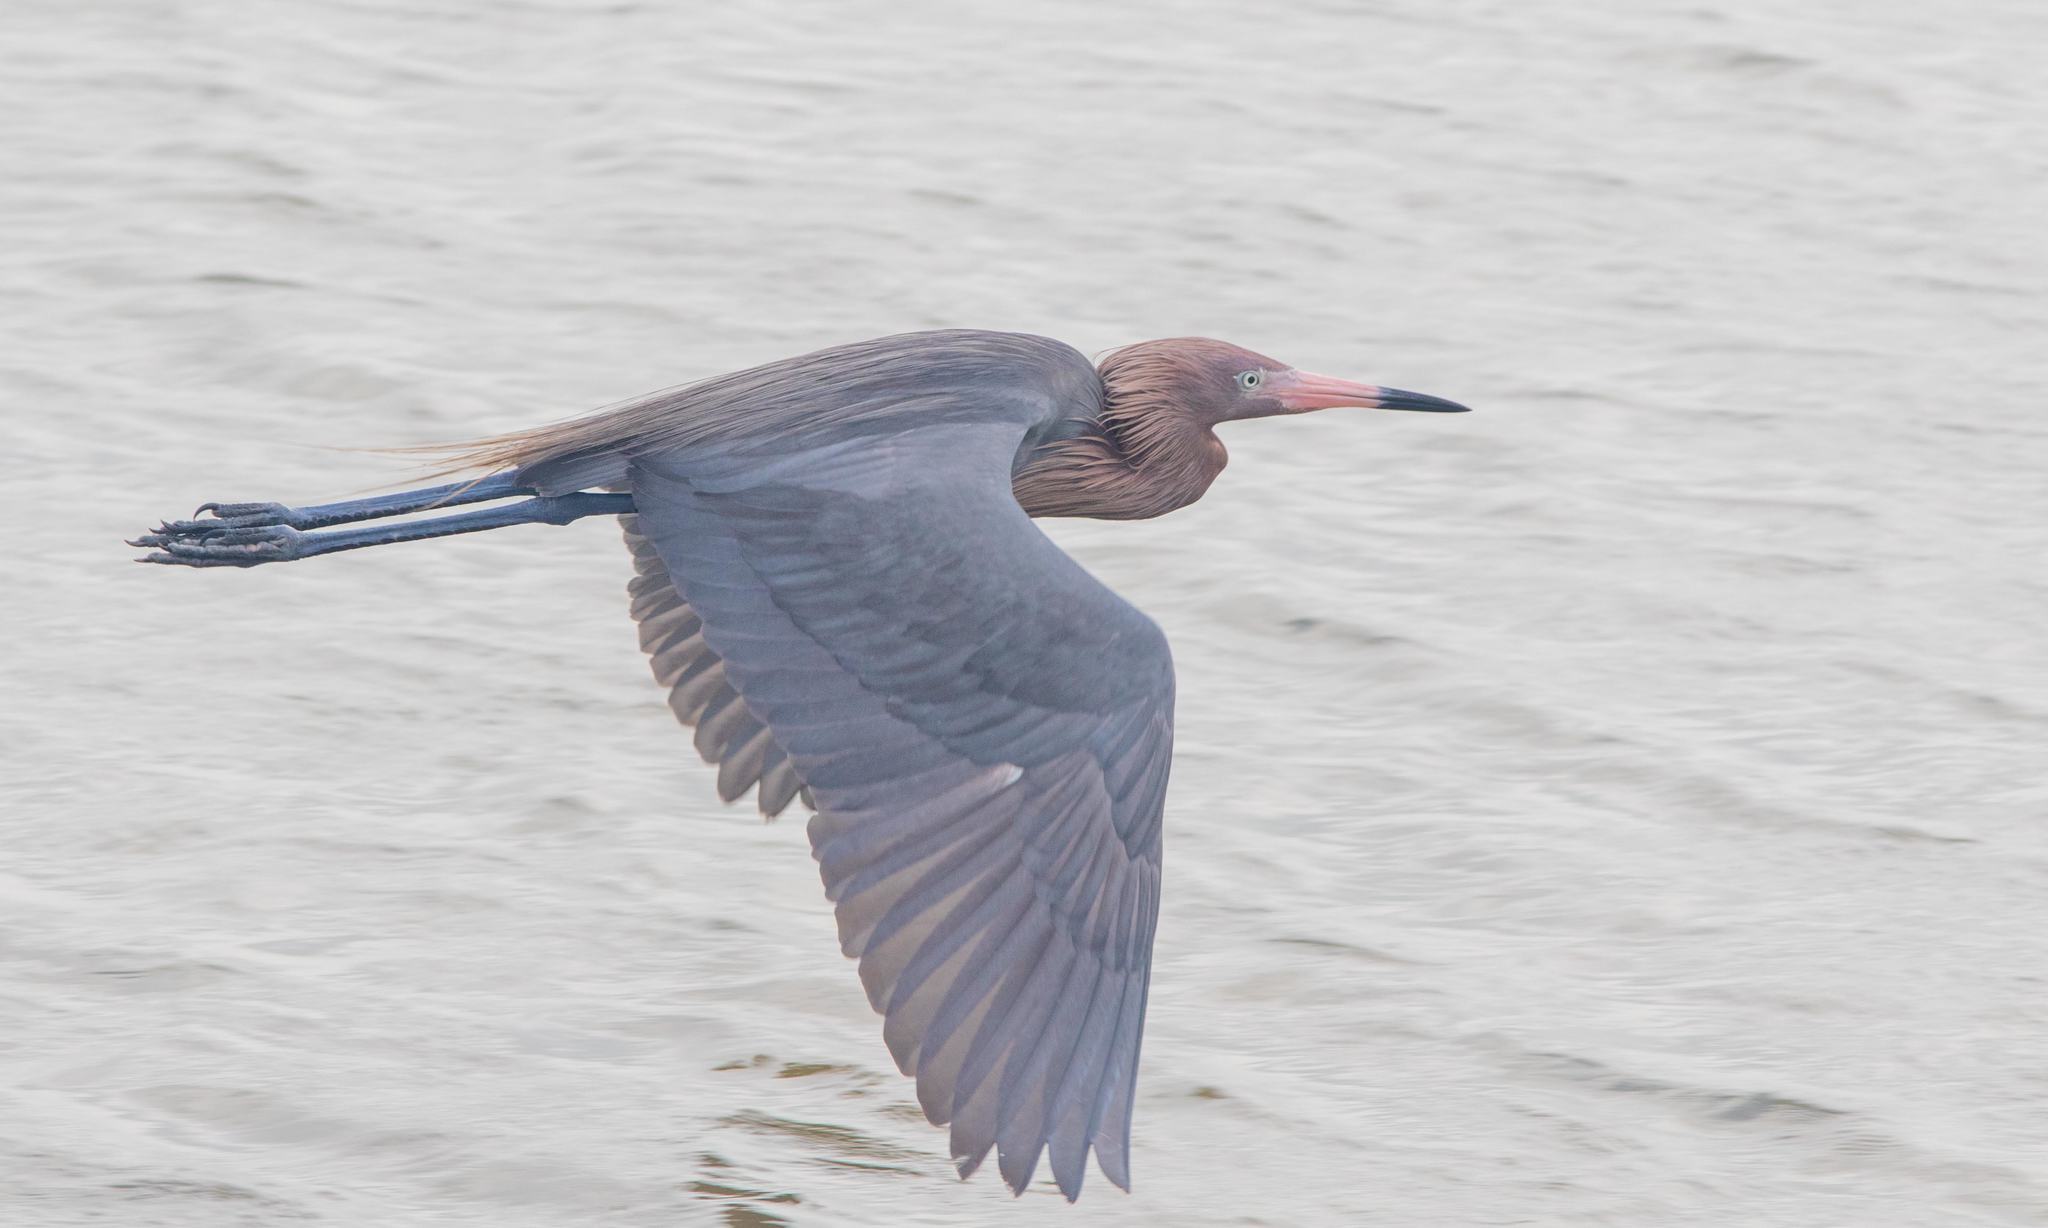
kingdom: Animalia
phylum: Chordata
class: Aves
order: Pelecaniformes
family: Ardeidae
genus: Egretta
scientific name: Egretta rufescens
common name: Reddish egret
